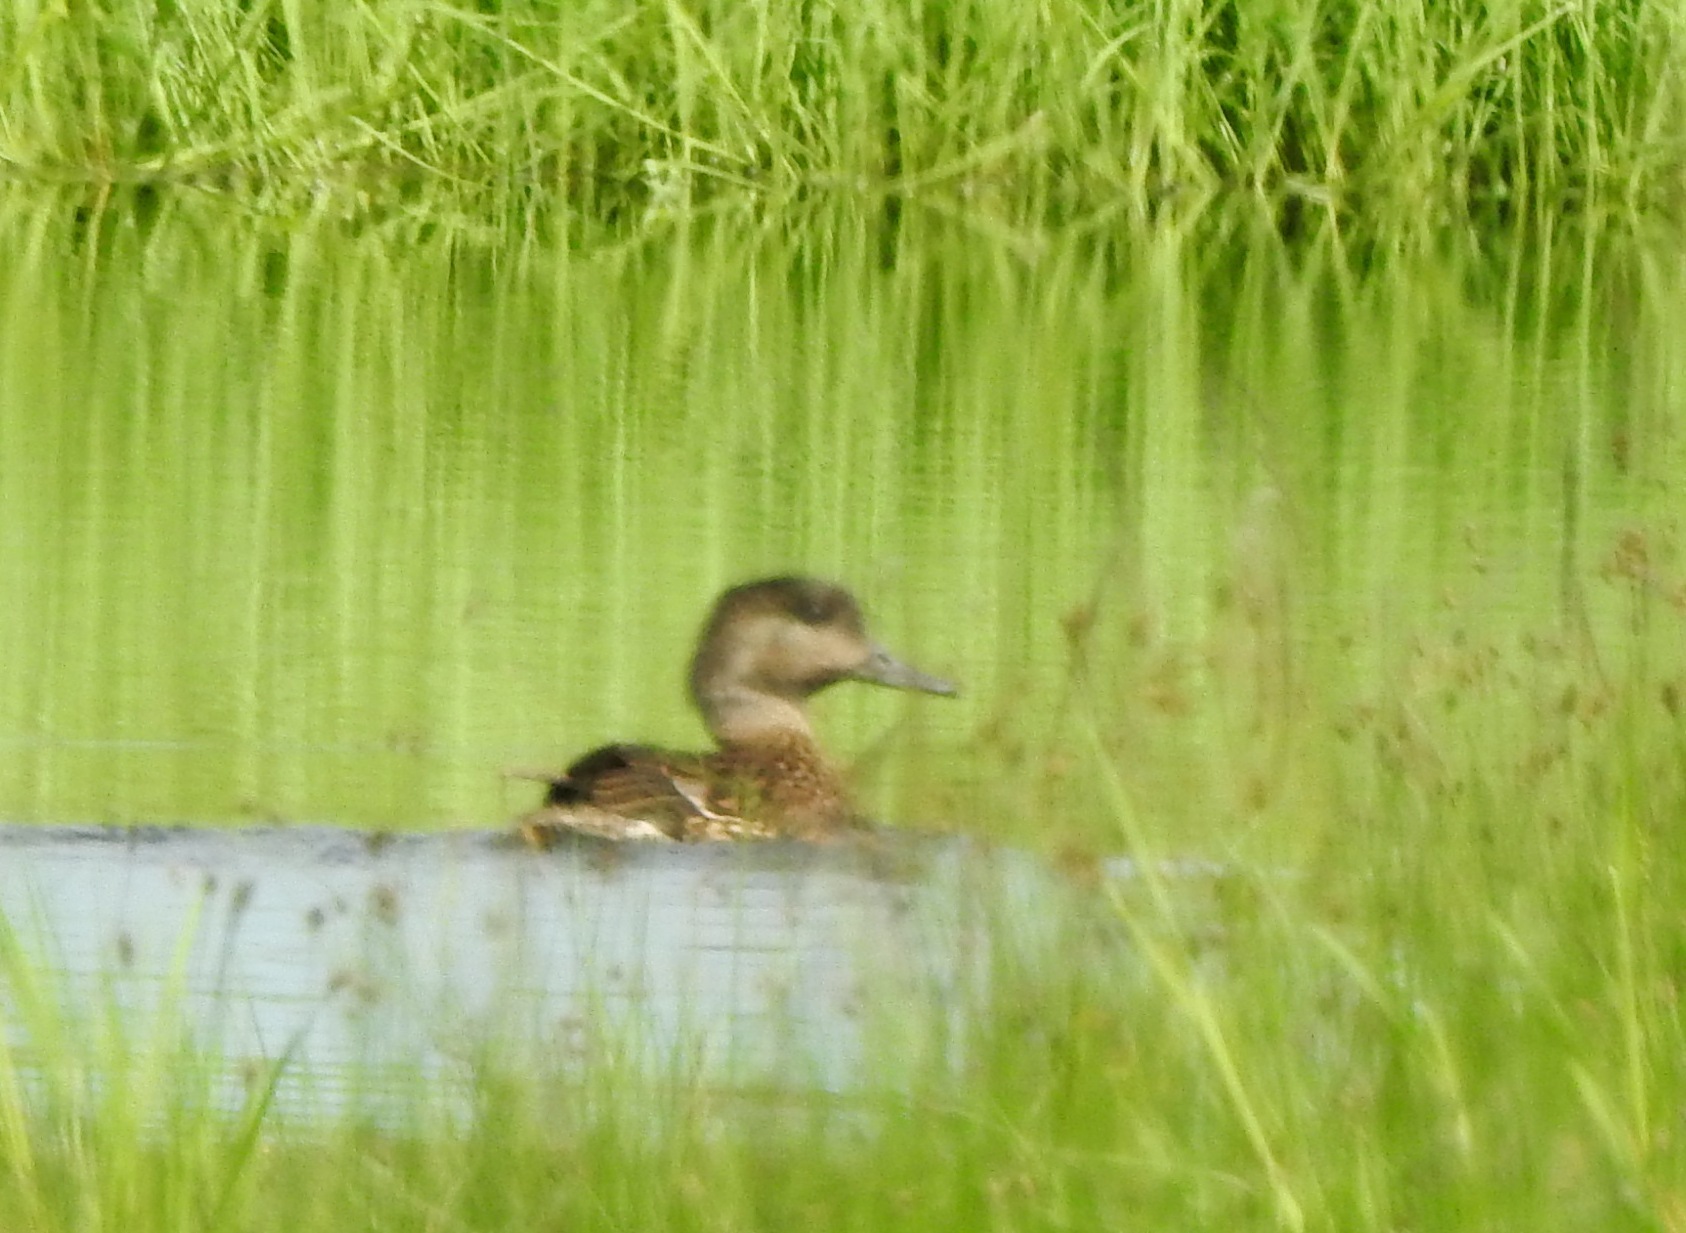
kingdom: Animalia
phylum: Chordata
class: Aves
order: Anseriformes
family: Anatidae
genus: Mareca
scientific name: Mareca falcata
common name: Falcated duck
